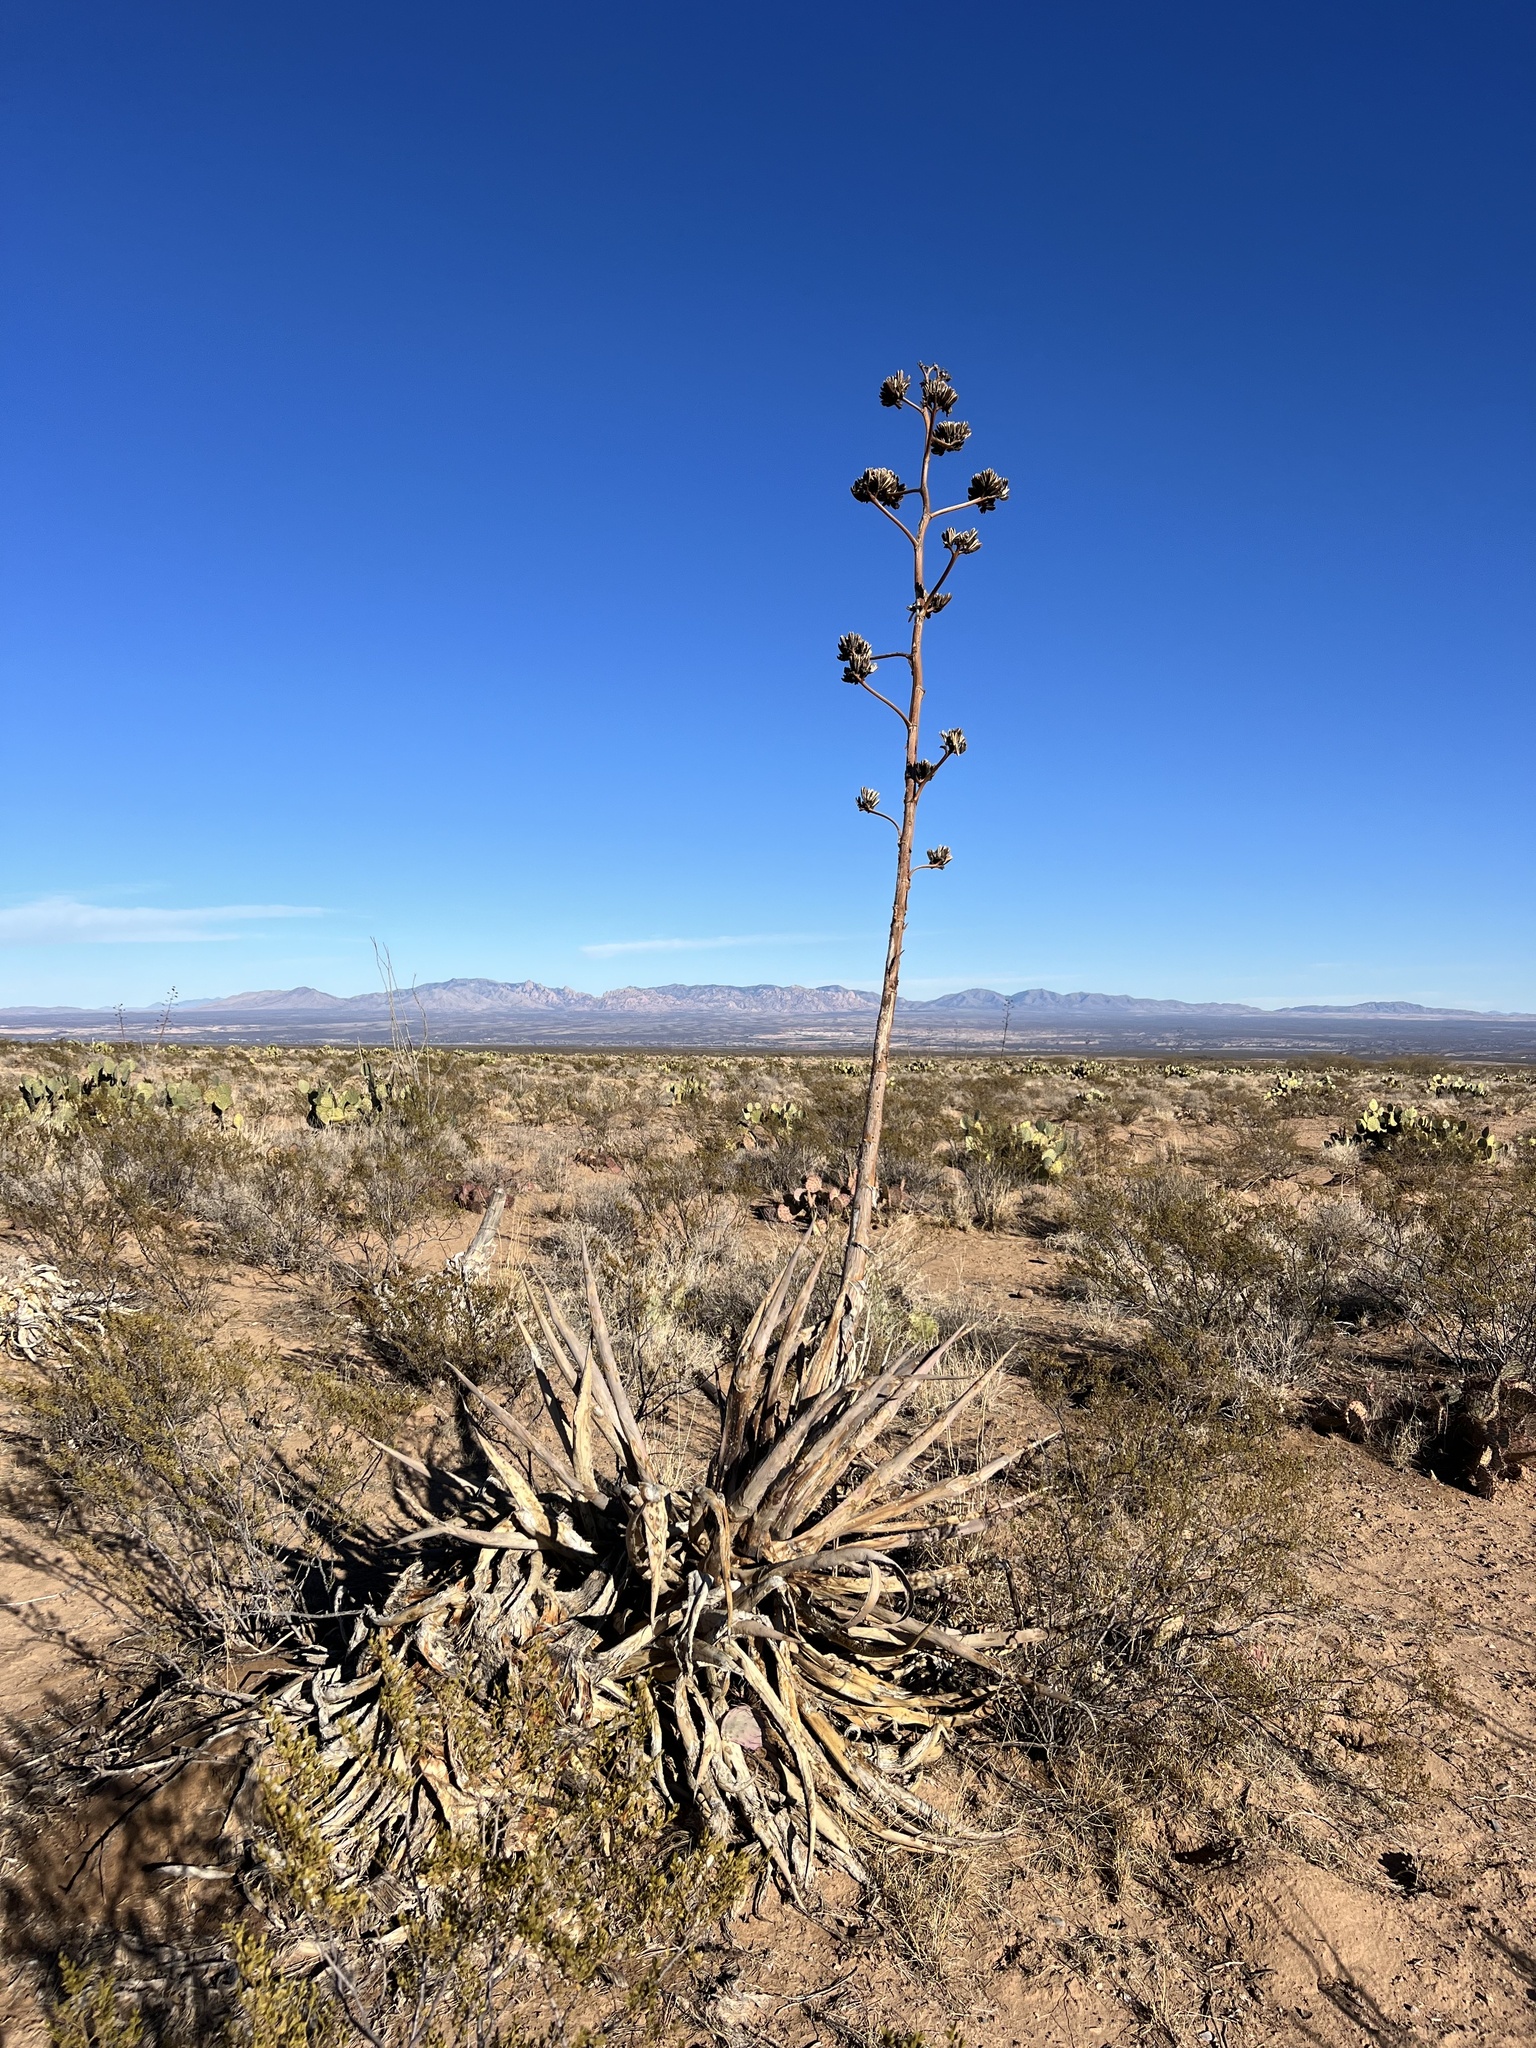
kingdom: Plantae
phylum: Tracheophyta
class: Liliopsida
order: Asparagales
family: Asparagaceae
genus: Agave
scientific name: Agave palmeri
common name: Palmer agave
